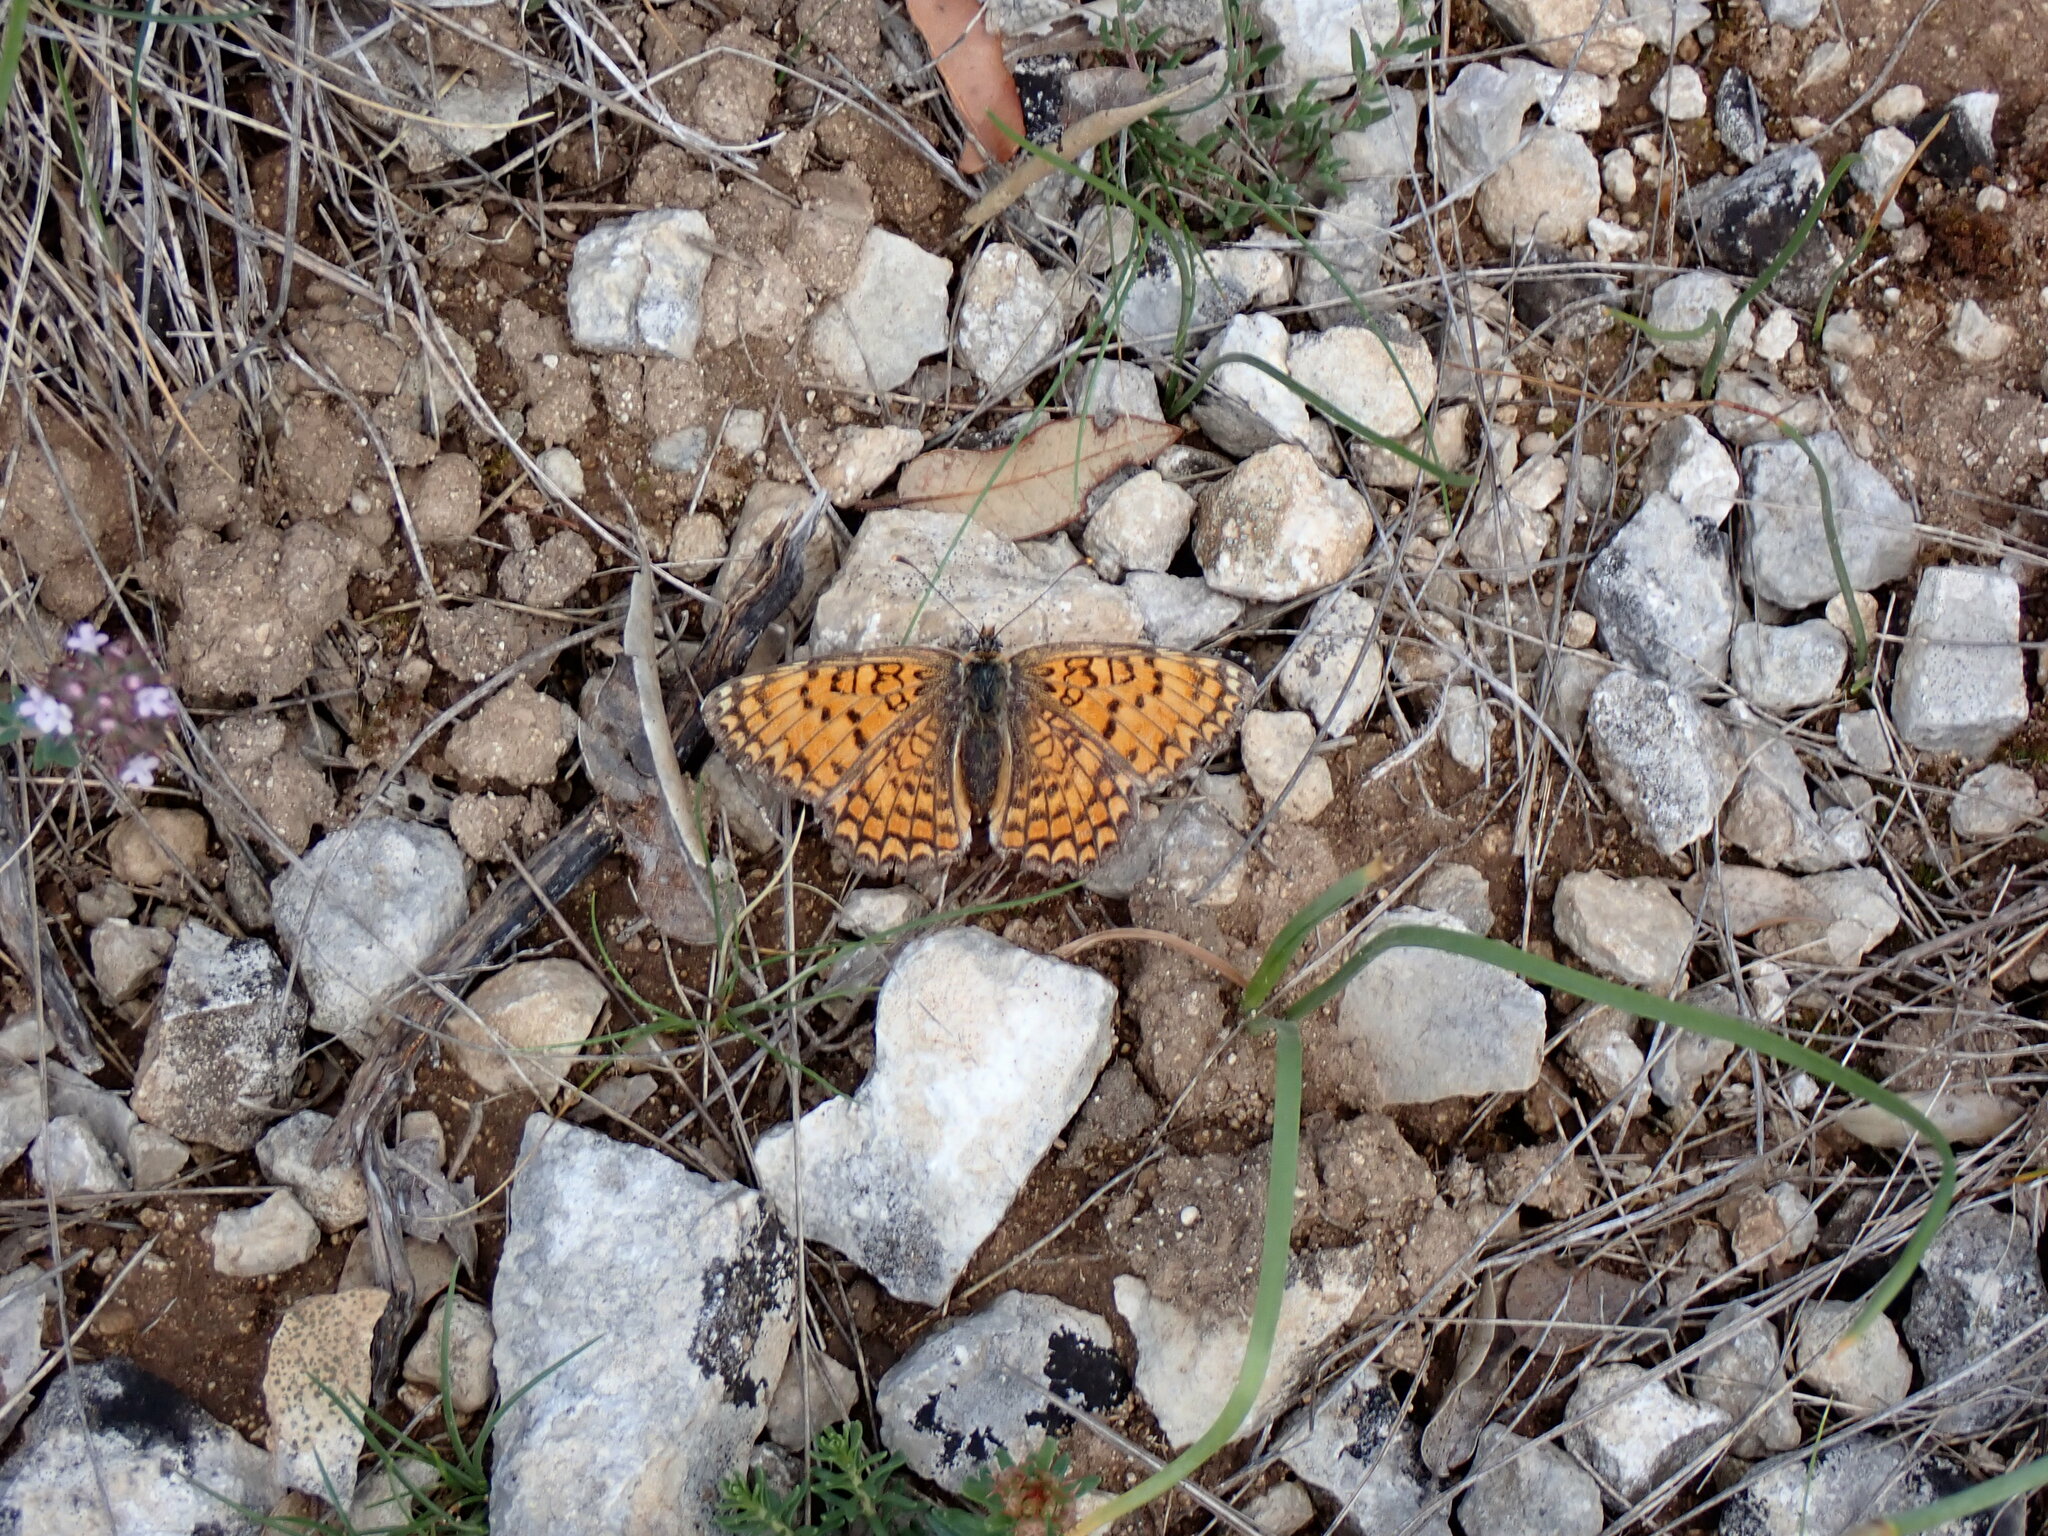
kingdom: Animalia
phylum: Arthropoda
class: Insecta
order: Lepidoptera
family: Nymphalidae
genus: Melitaea
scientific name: Melitaea phoebe
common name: Knapweed fritillary
